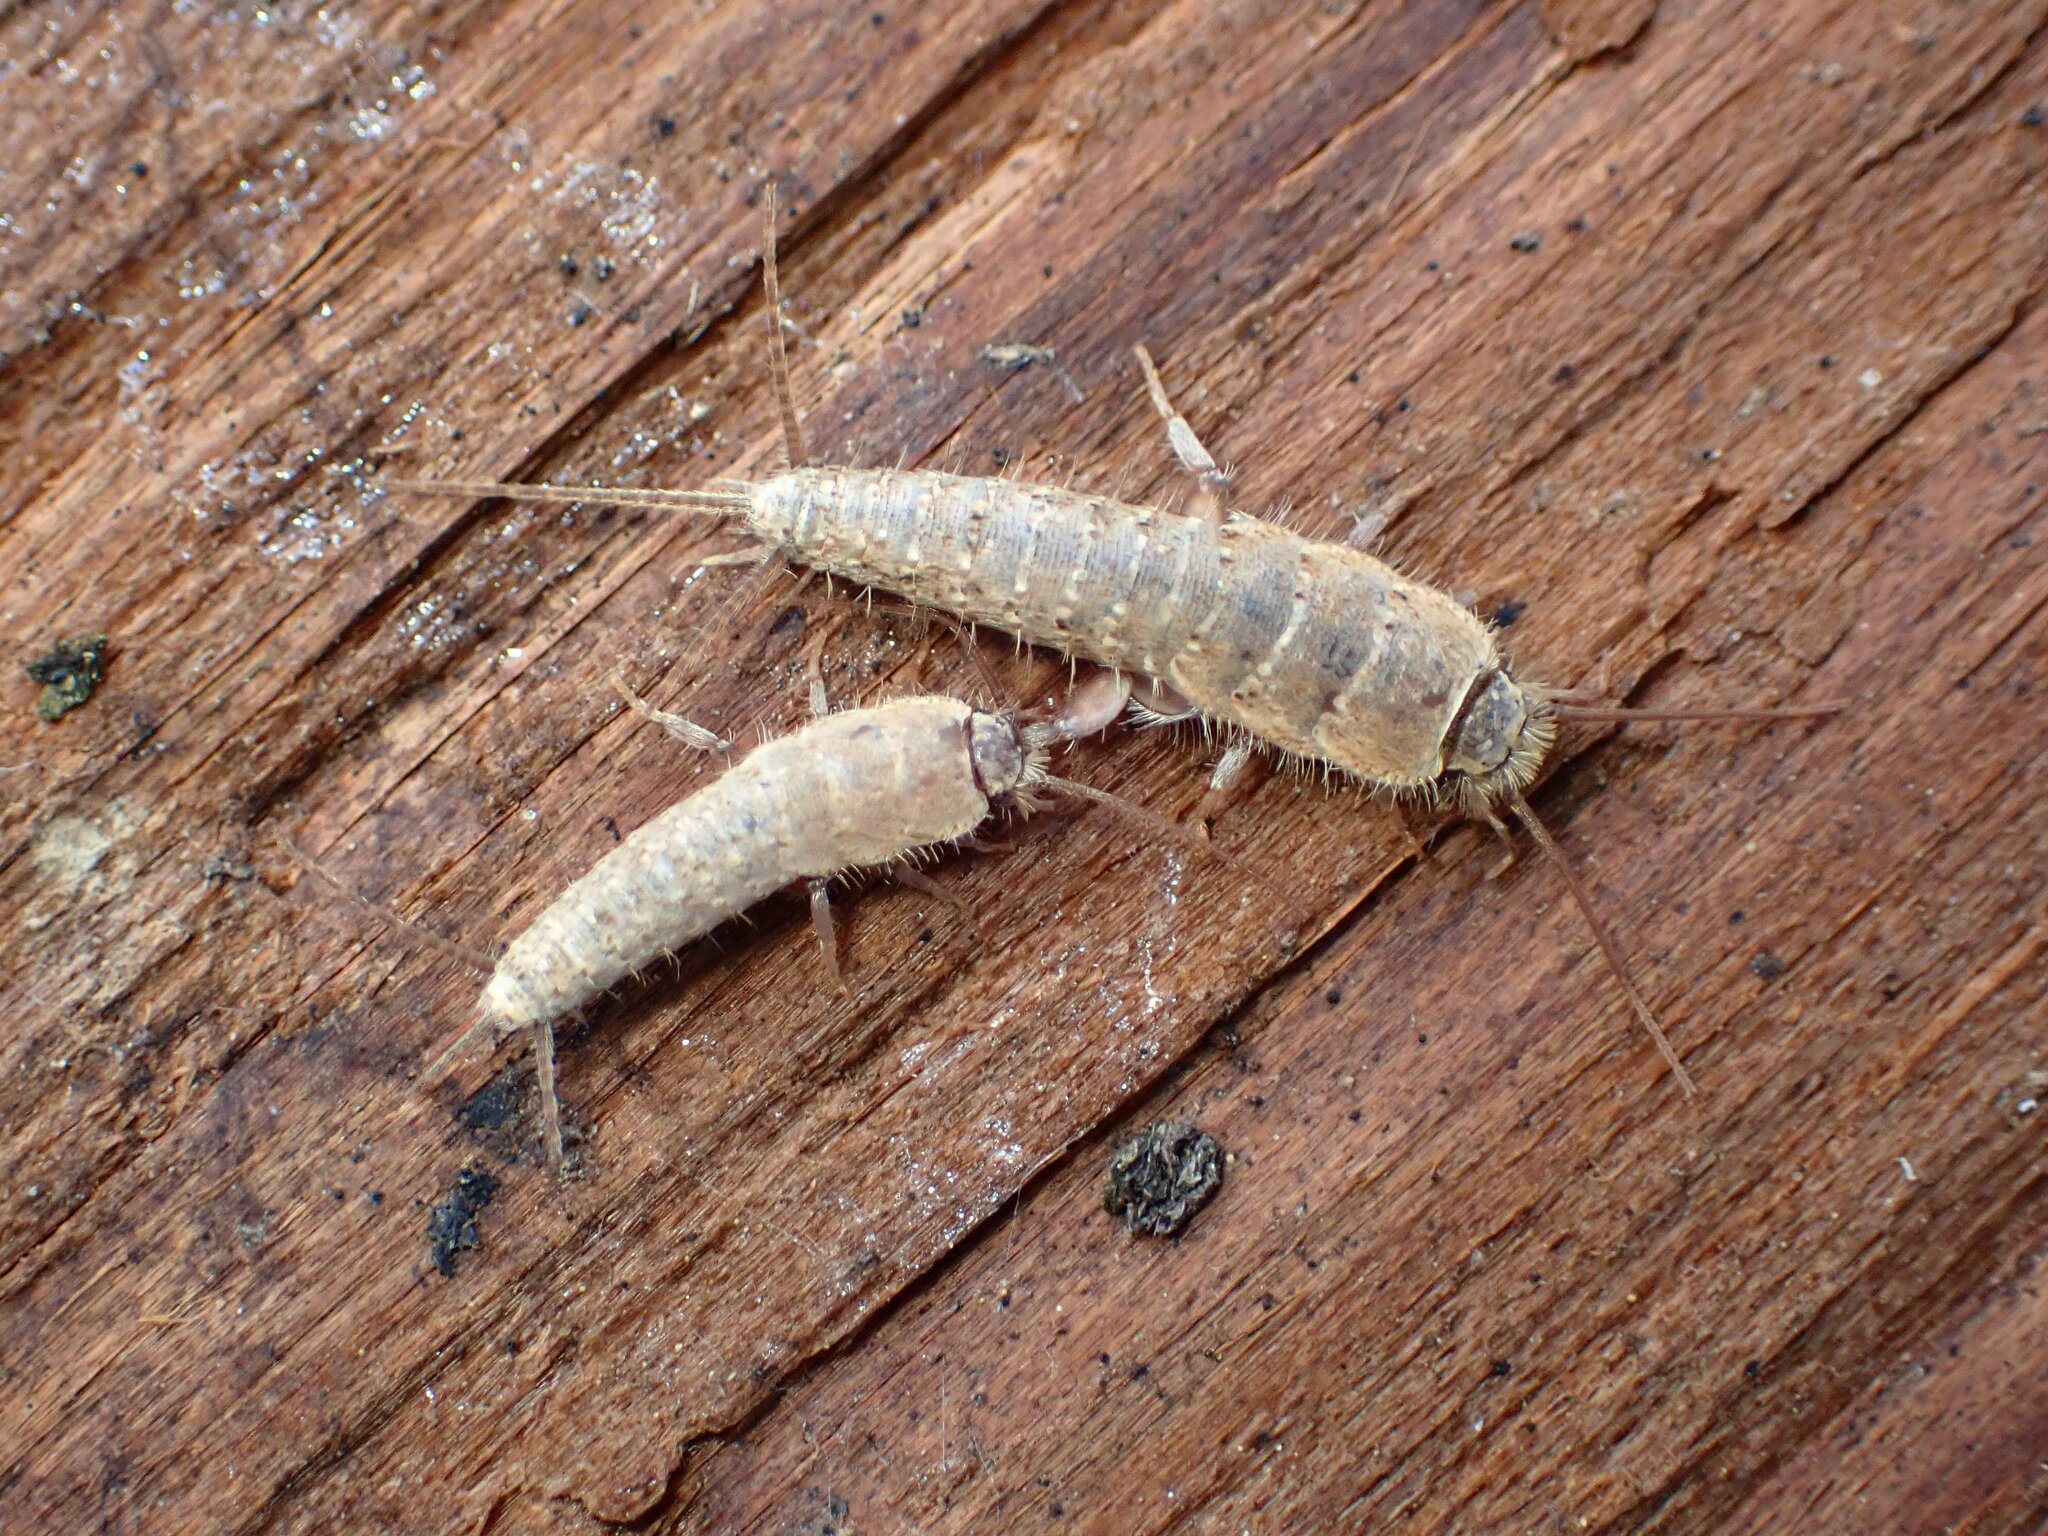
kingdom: Animalia
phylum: Arthropoda
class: Insecta
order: Zygentoma
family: Lepismatidae
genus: Ctenolepisma
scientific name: Ctenolepisma ciliata
